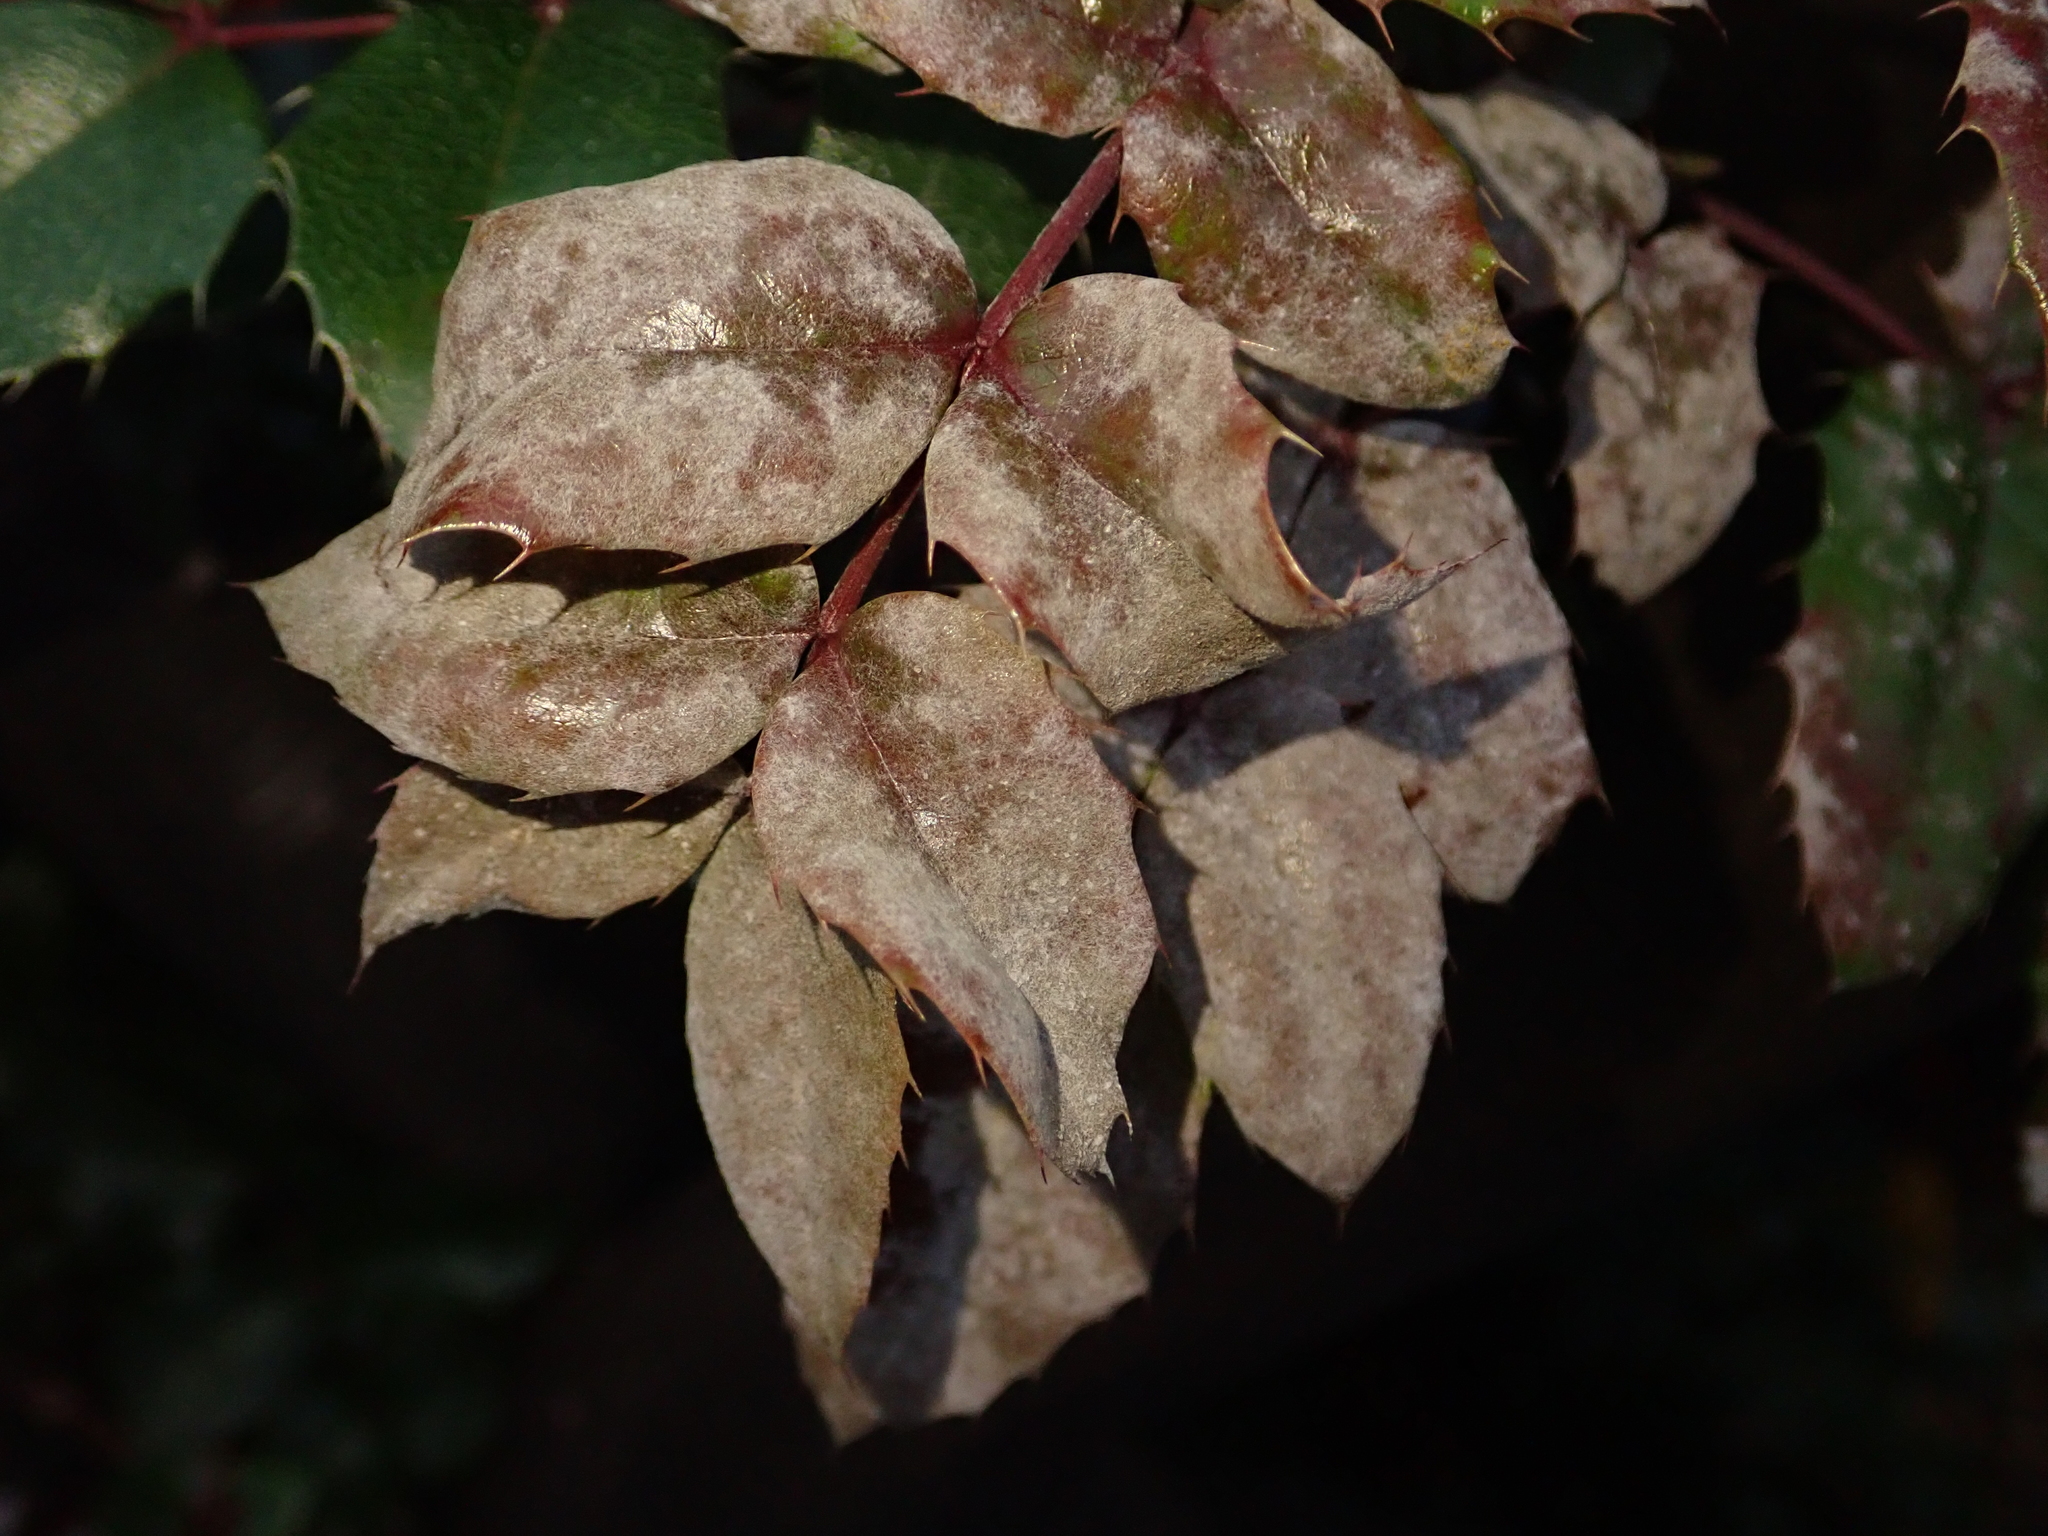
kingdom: Fungi
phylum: Ascomycota
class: Leotiomycetes
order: Helotiales
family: Erysiphaceae
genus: Erysiphe
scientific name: Erysiphe berberidis
